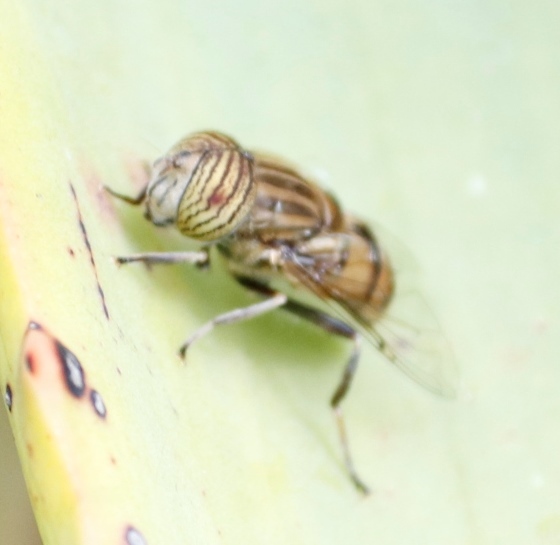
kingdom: Animalia
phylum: Arthropoda
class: Insecta
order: Diptera
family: Syrphidae
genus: Eristalinus
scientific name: Eristalinus barclayi
